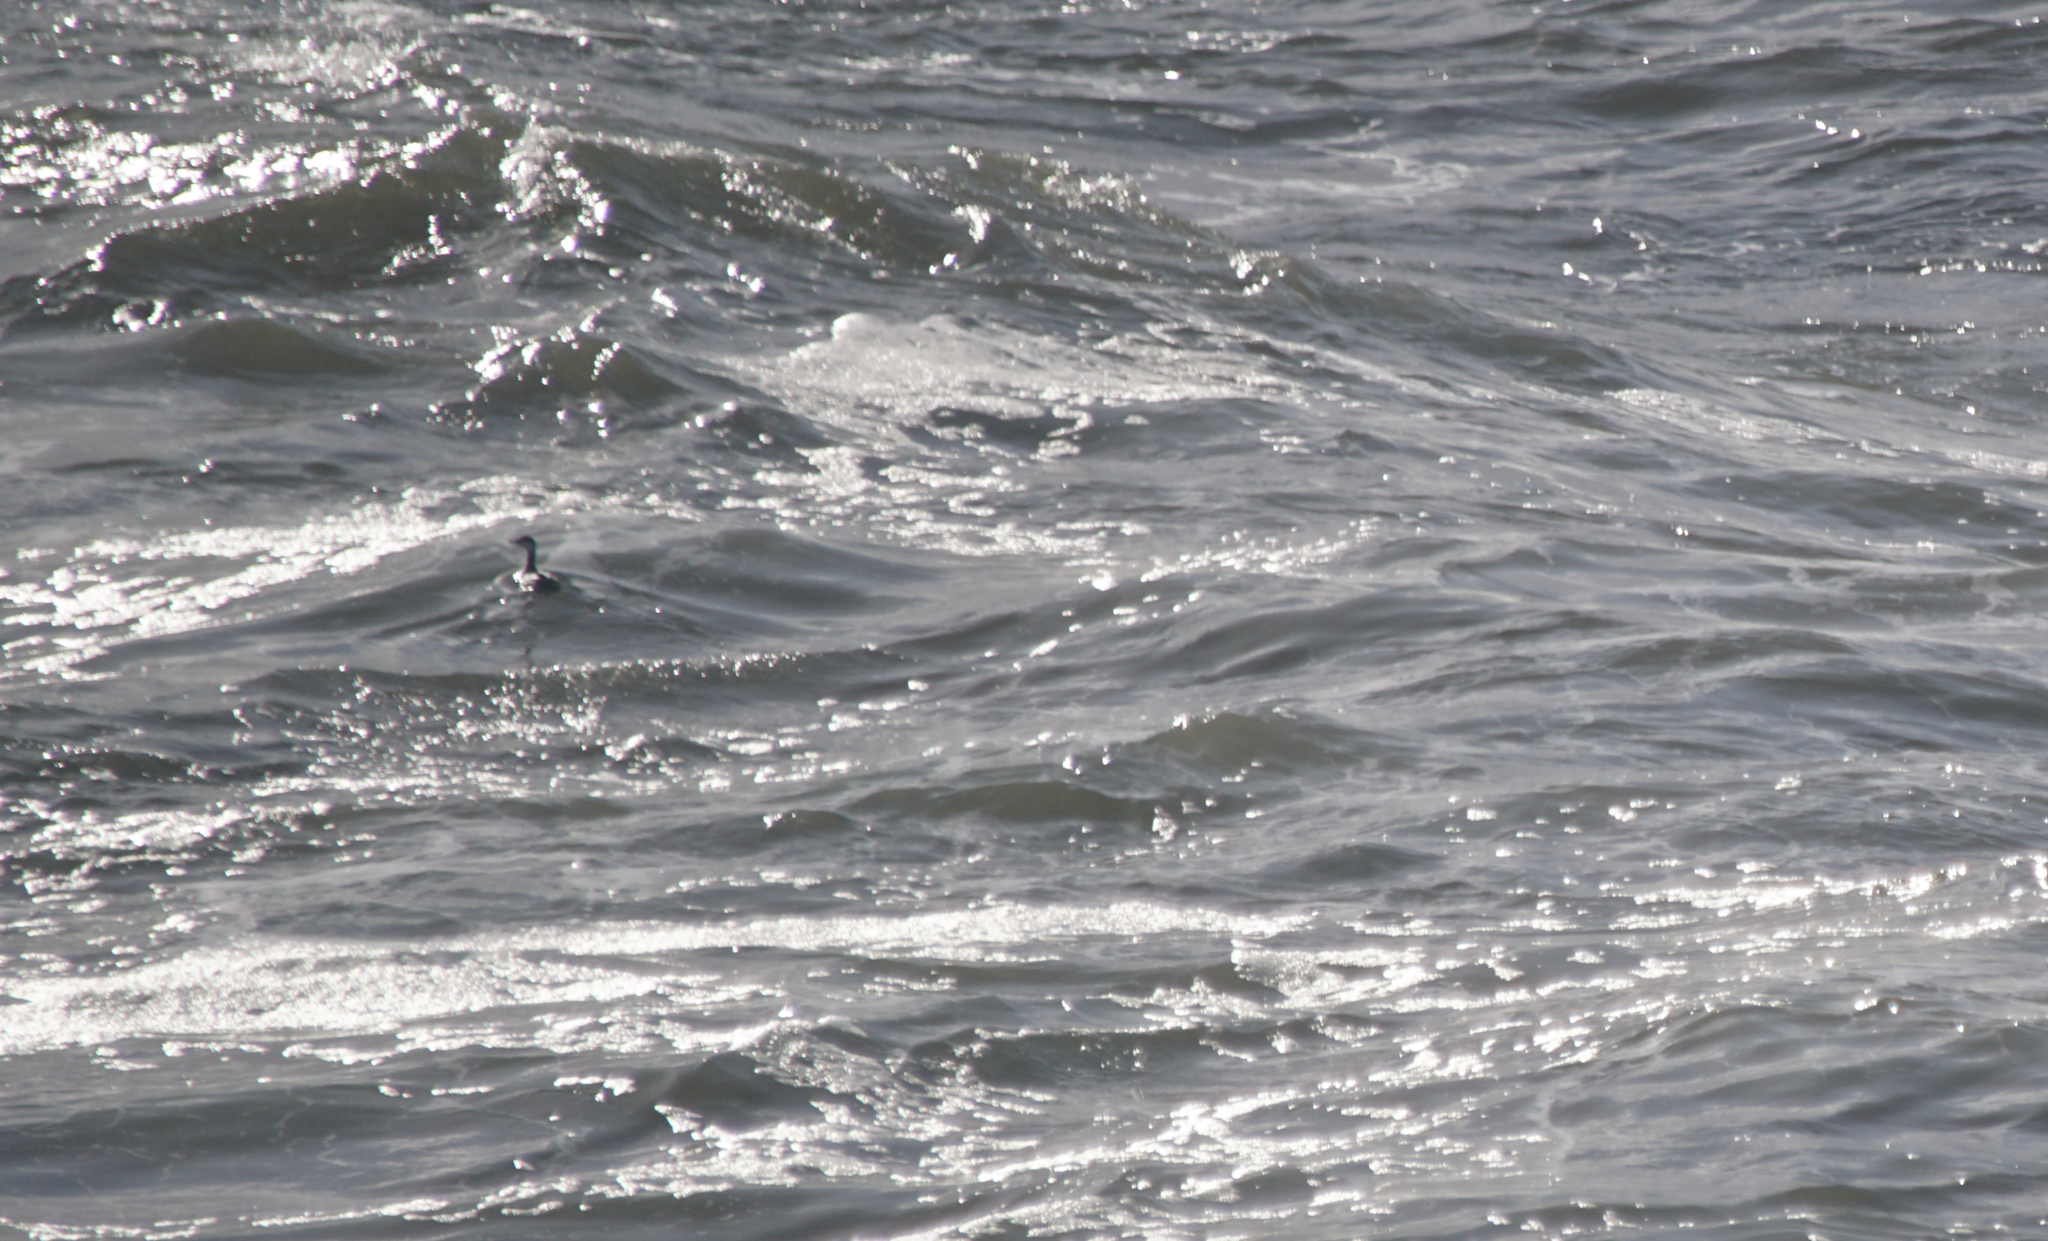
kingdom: Animalia
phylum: Chordata
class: Aves
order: Podicipediformes
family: Podicipedidae
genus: Podiceps
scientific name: Podiceps auritus
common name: Horned grebe
